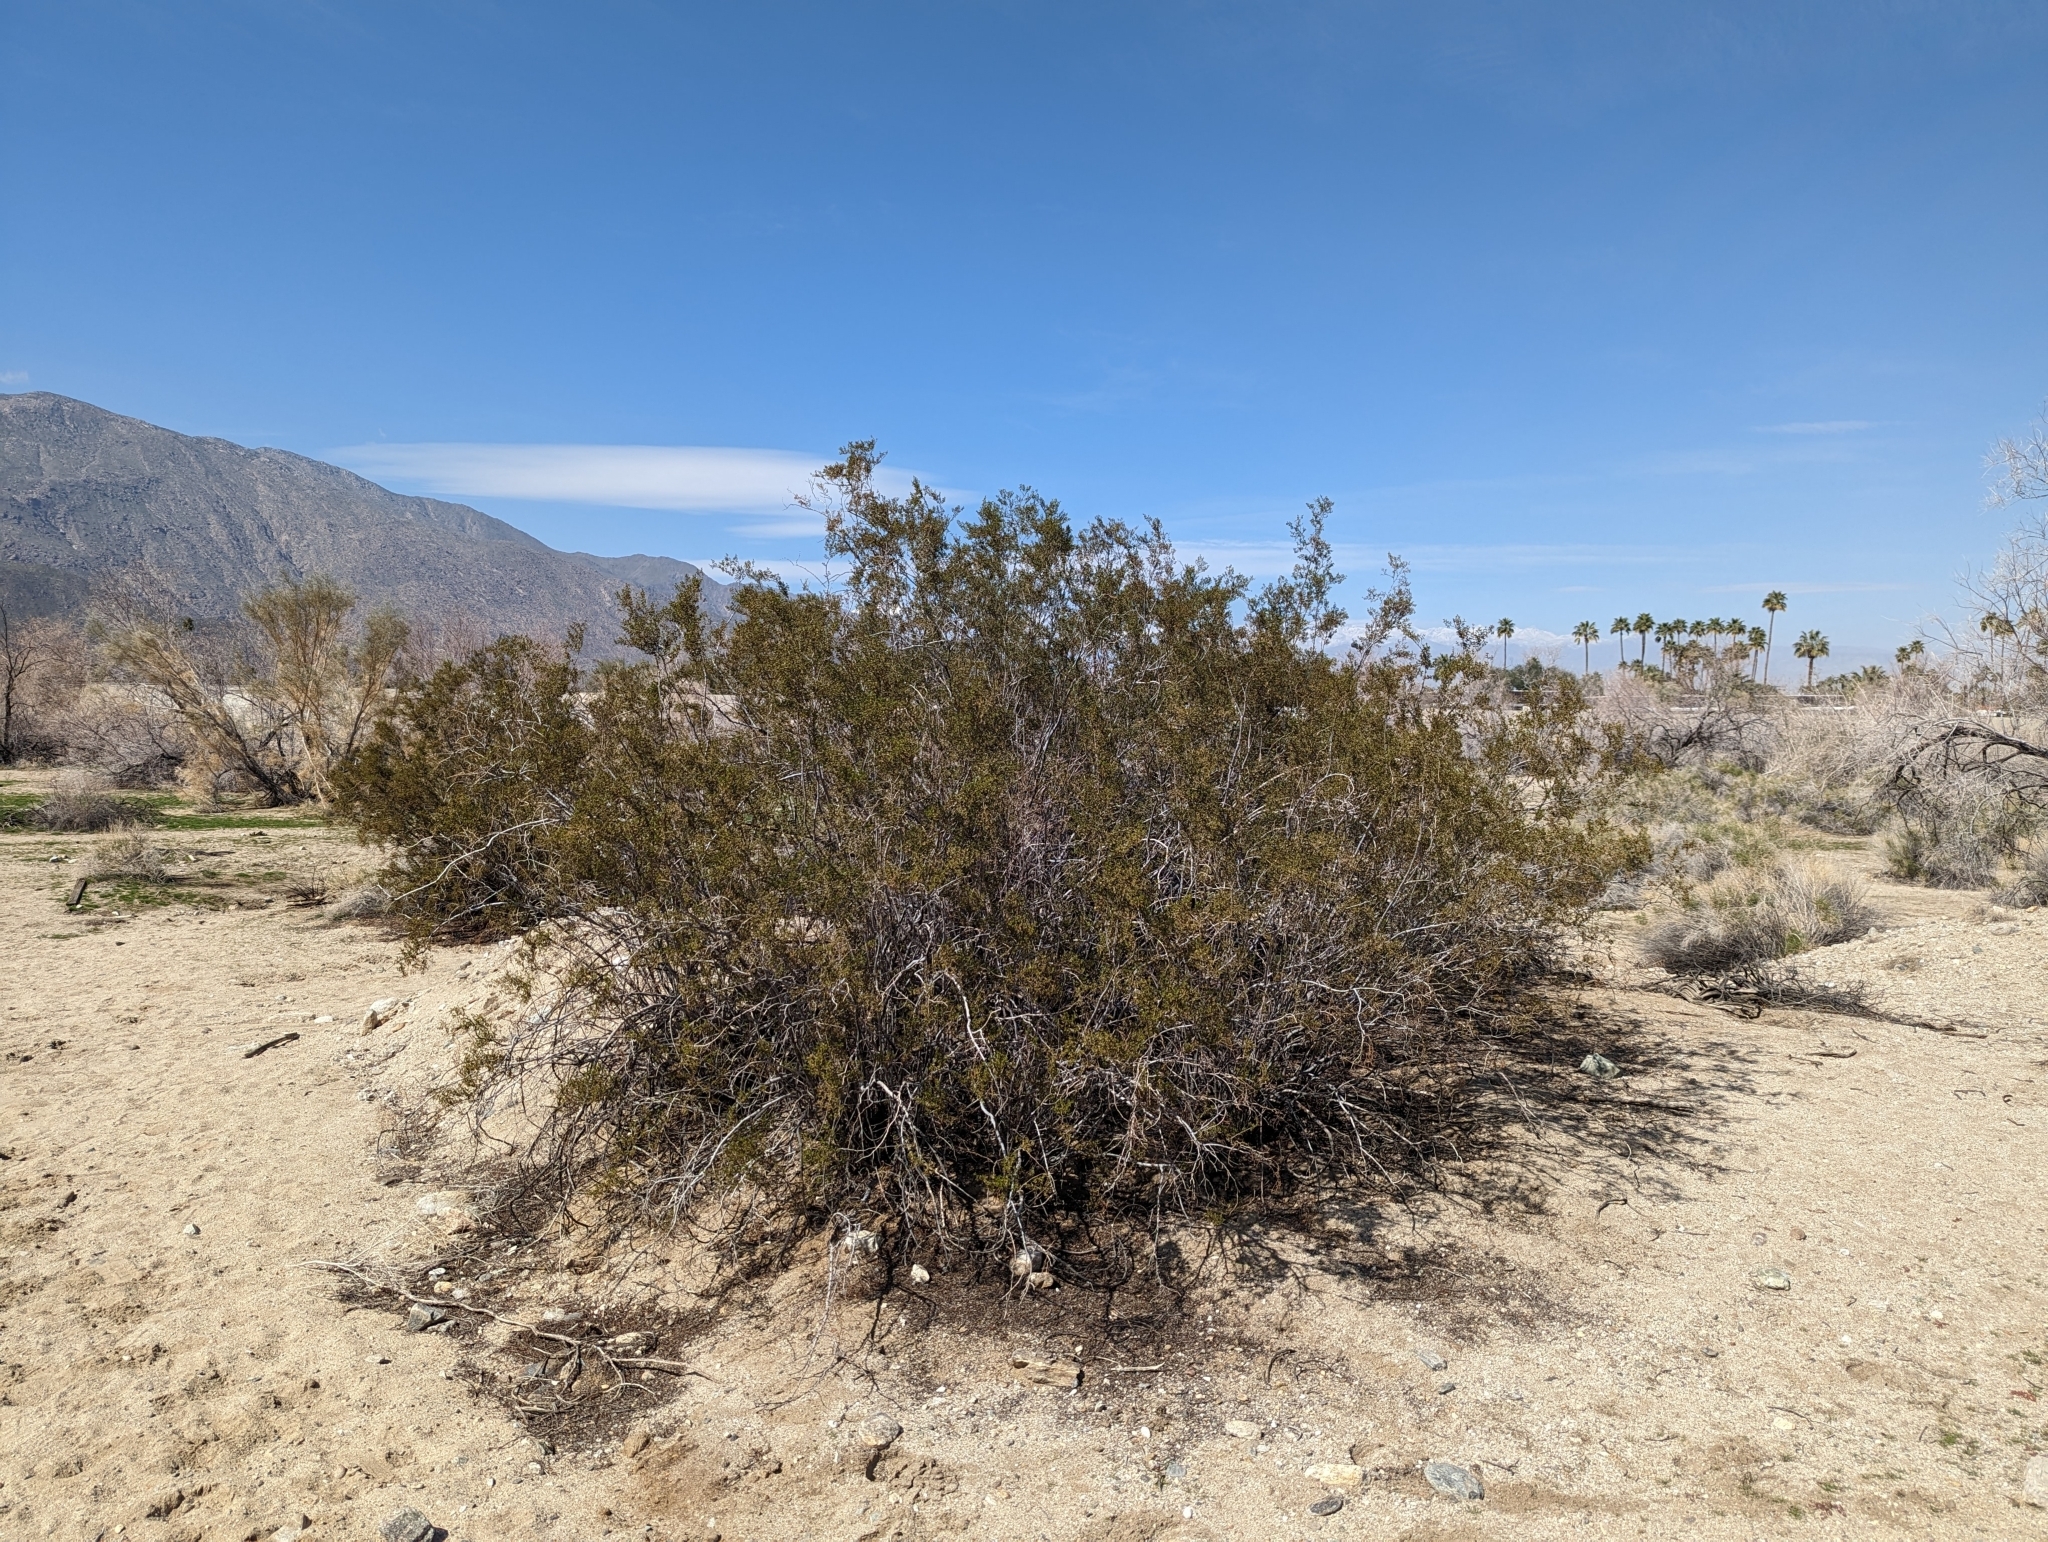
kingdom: Plantae
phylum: Tracheophyta
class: Magnoliopsida
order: Zygophyllales
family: Zygophyllaceae
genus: Larrea
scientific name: Larrea tridentata
